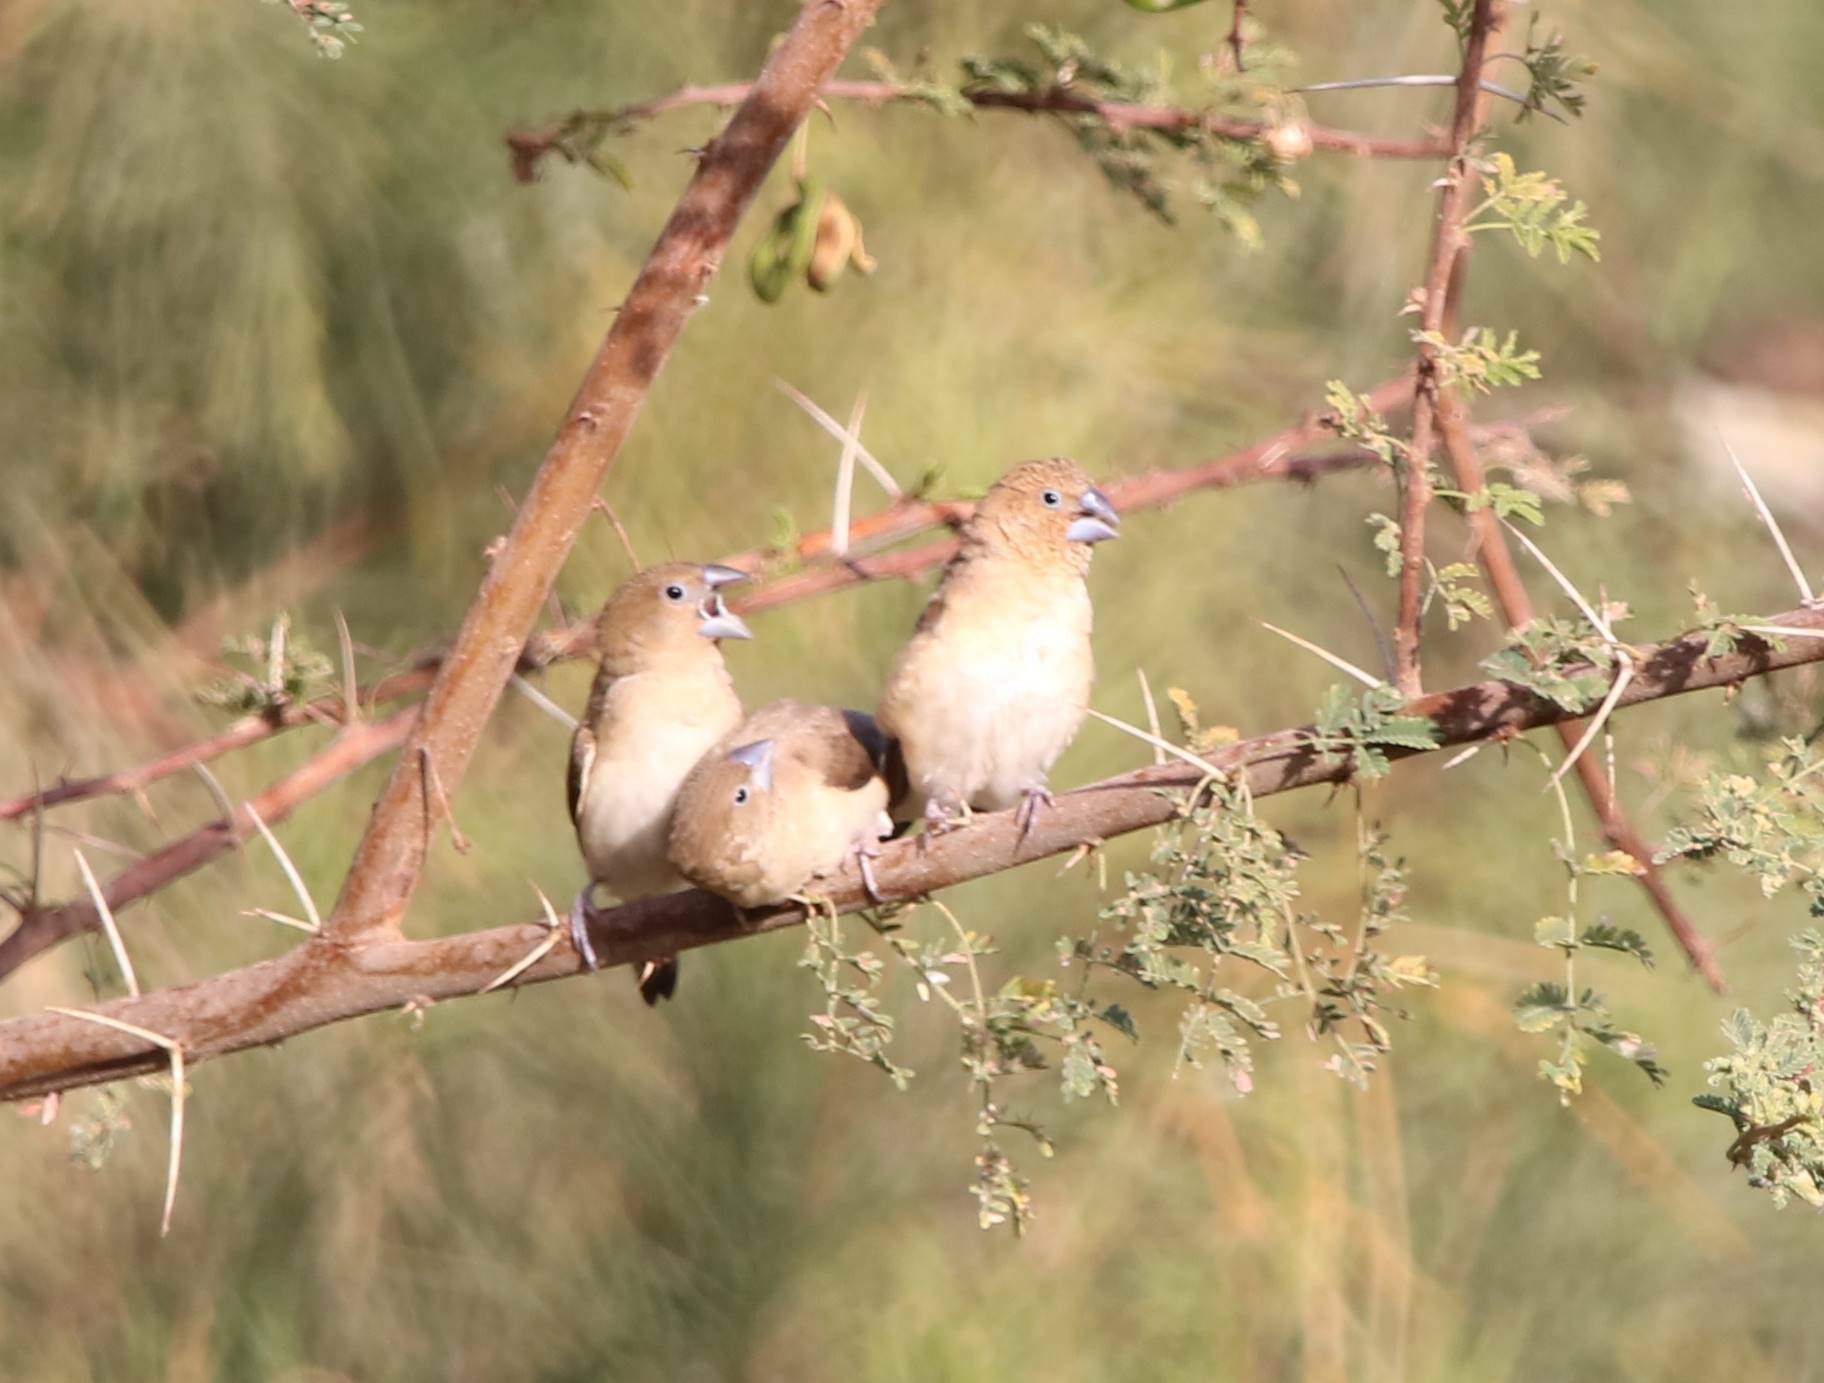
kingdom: Animalia
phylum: Chordata
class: Aves
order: Passeriformes
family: Estrildidae
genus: Euodice
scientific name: Euodice cantans
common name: African silverbill
